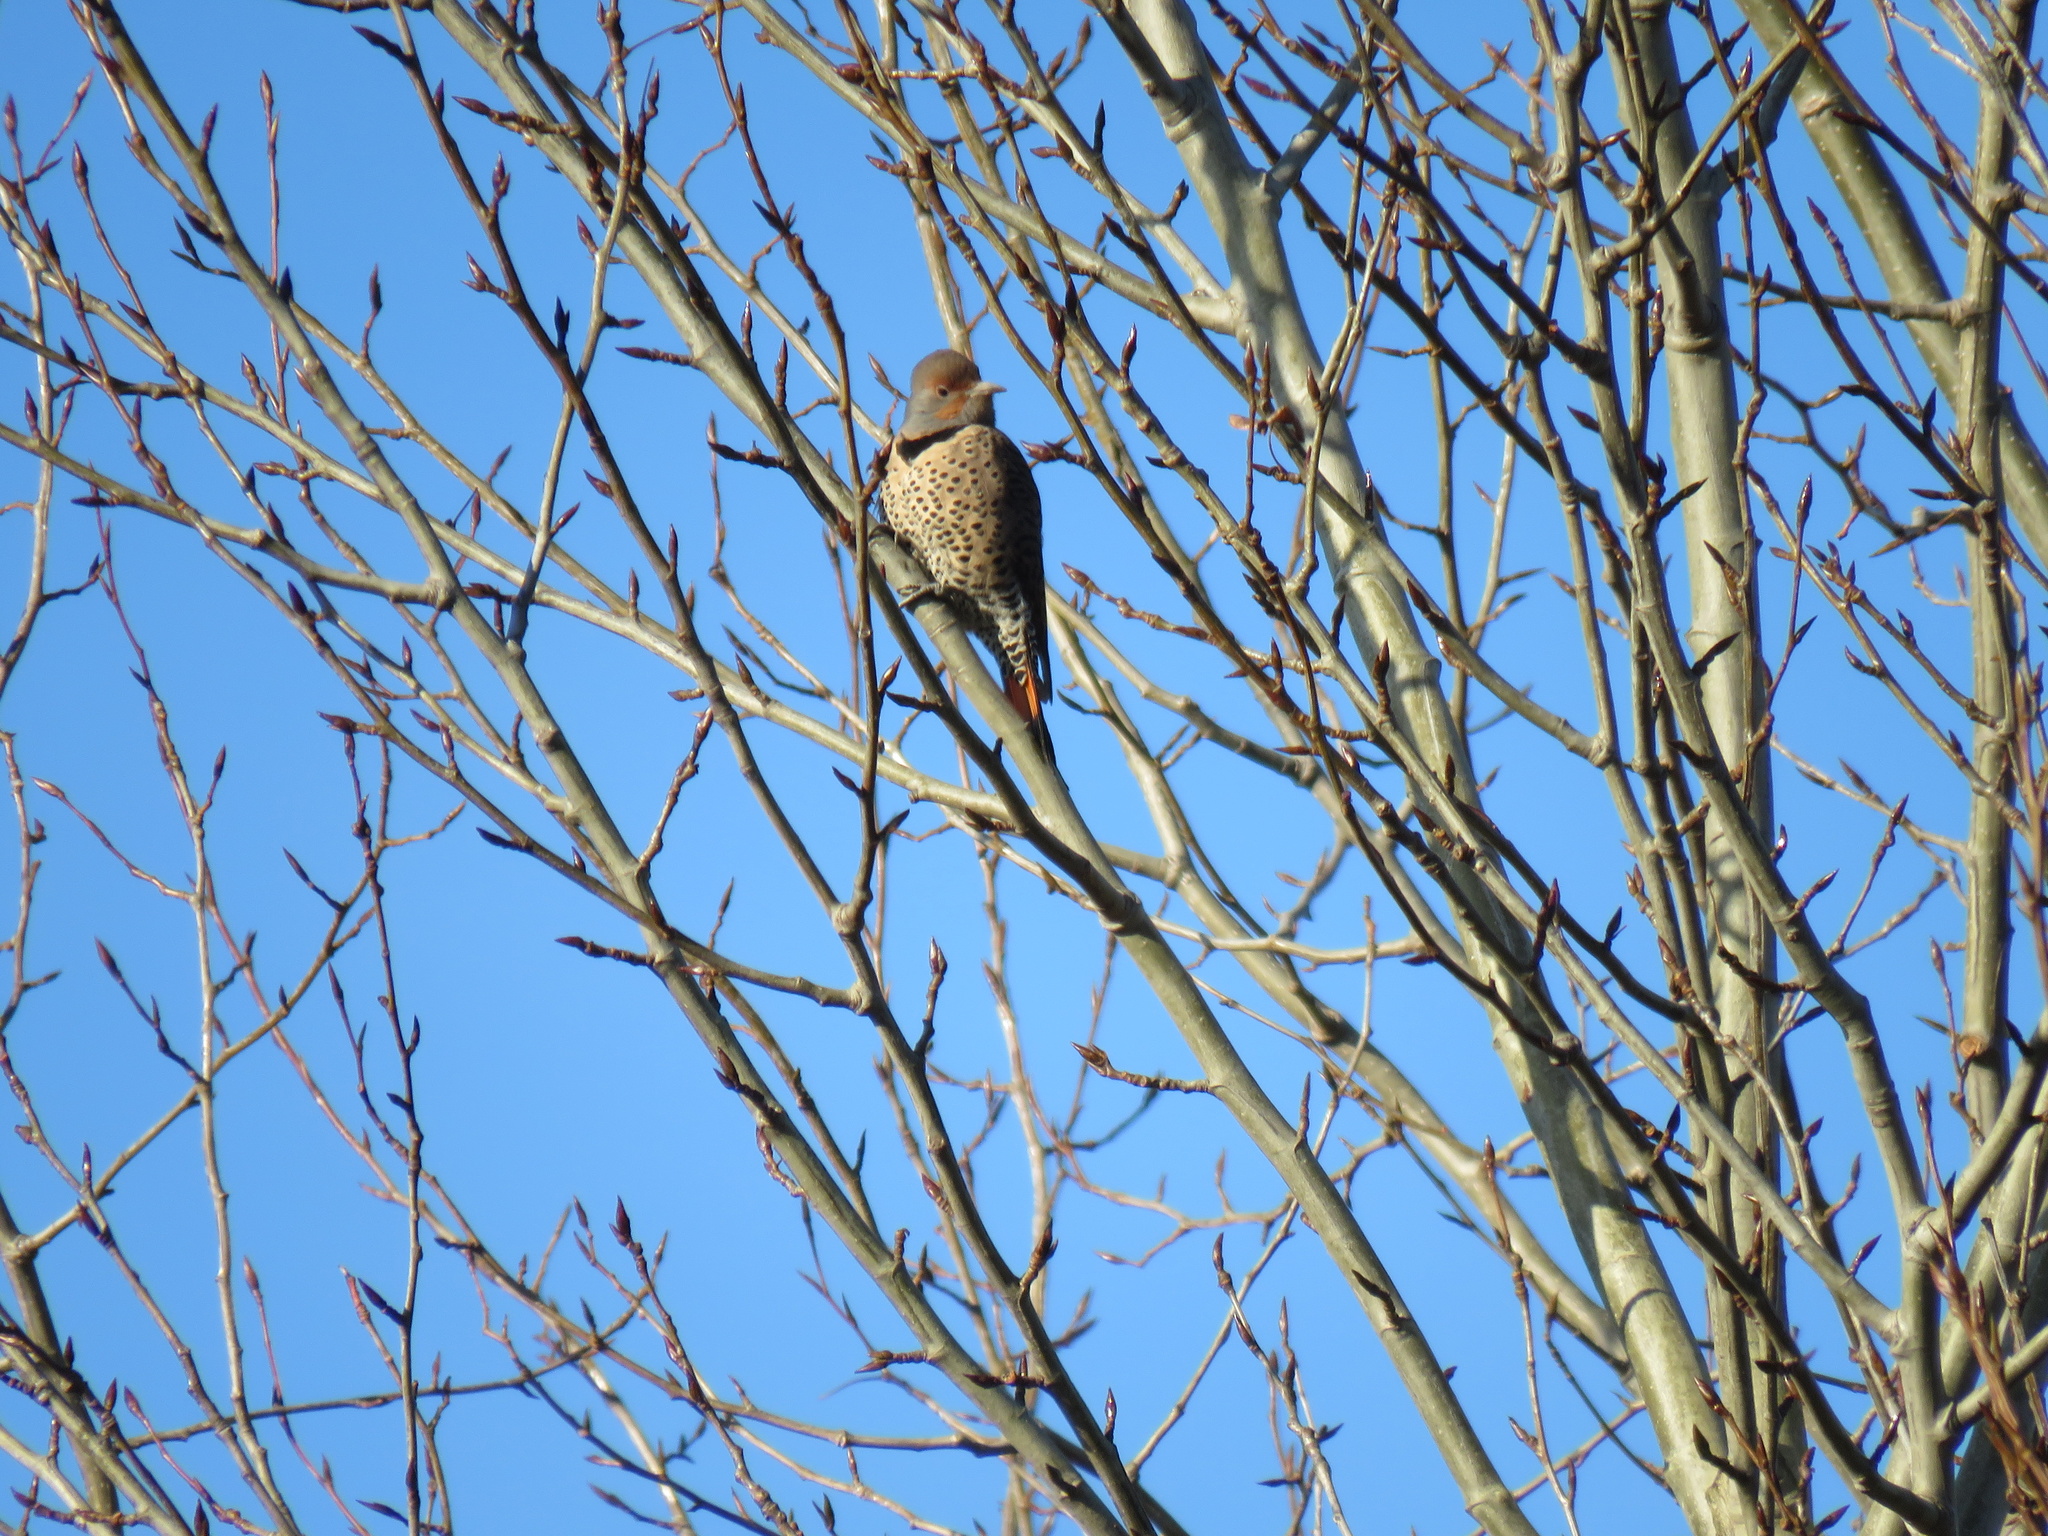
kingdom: Animalia
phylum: Chordata
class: Aves
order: Piciformes
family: Picidae
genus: Colaptes
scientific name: Colaptes auratus
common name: Northern flicker
